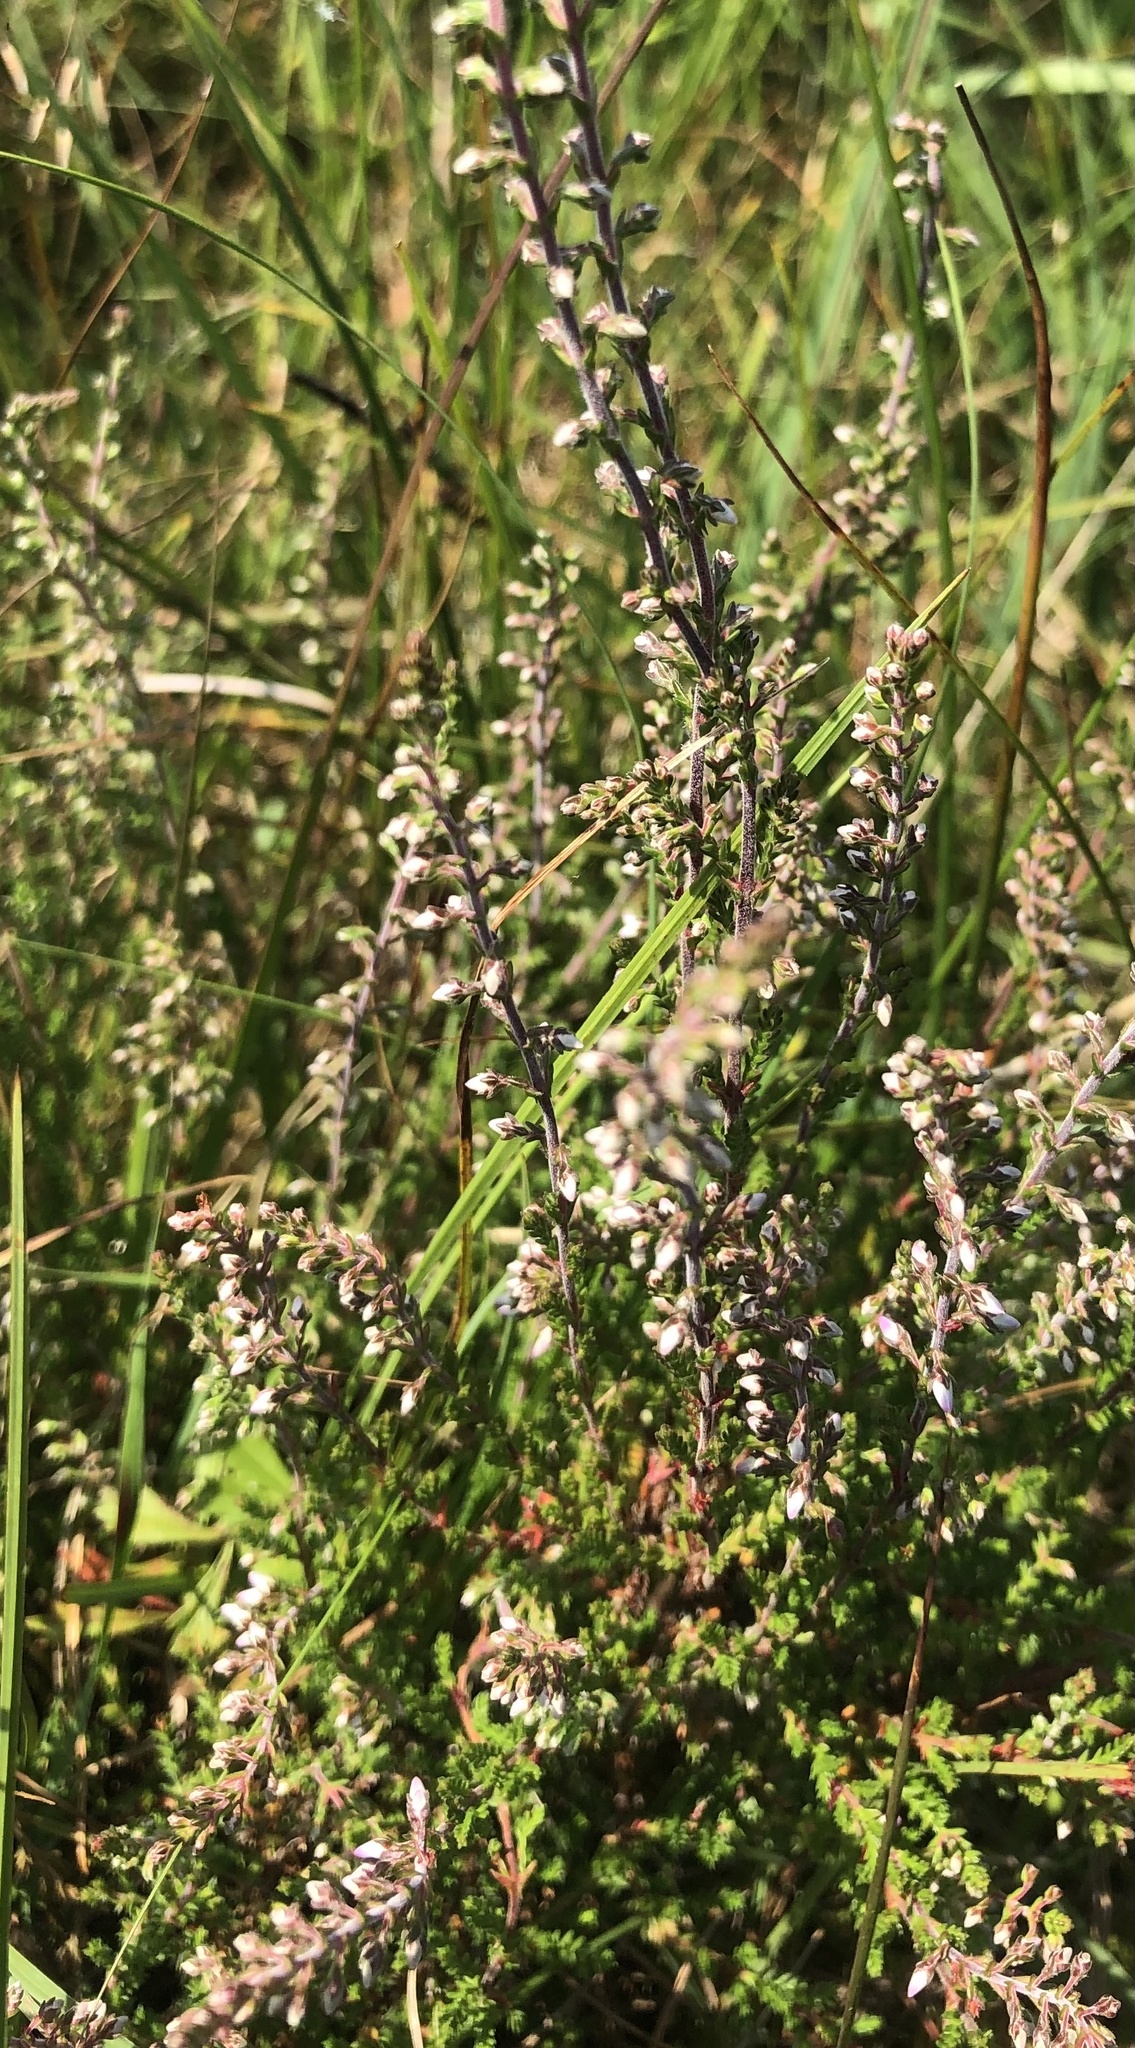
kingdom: Plantae
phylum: Tracheophyta
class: Magnoliopsida
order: Ericales
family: Ericaceae
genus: Calluna
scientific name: Calluna vulgaris
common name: Heather
